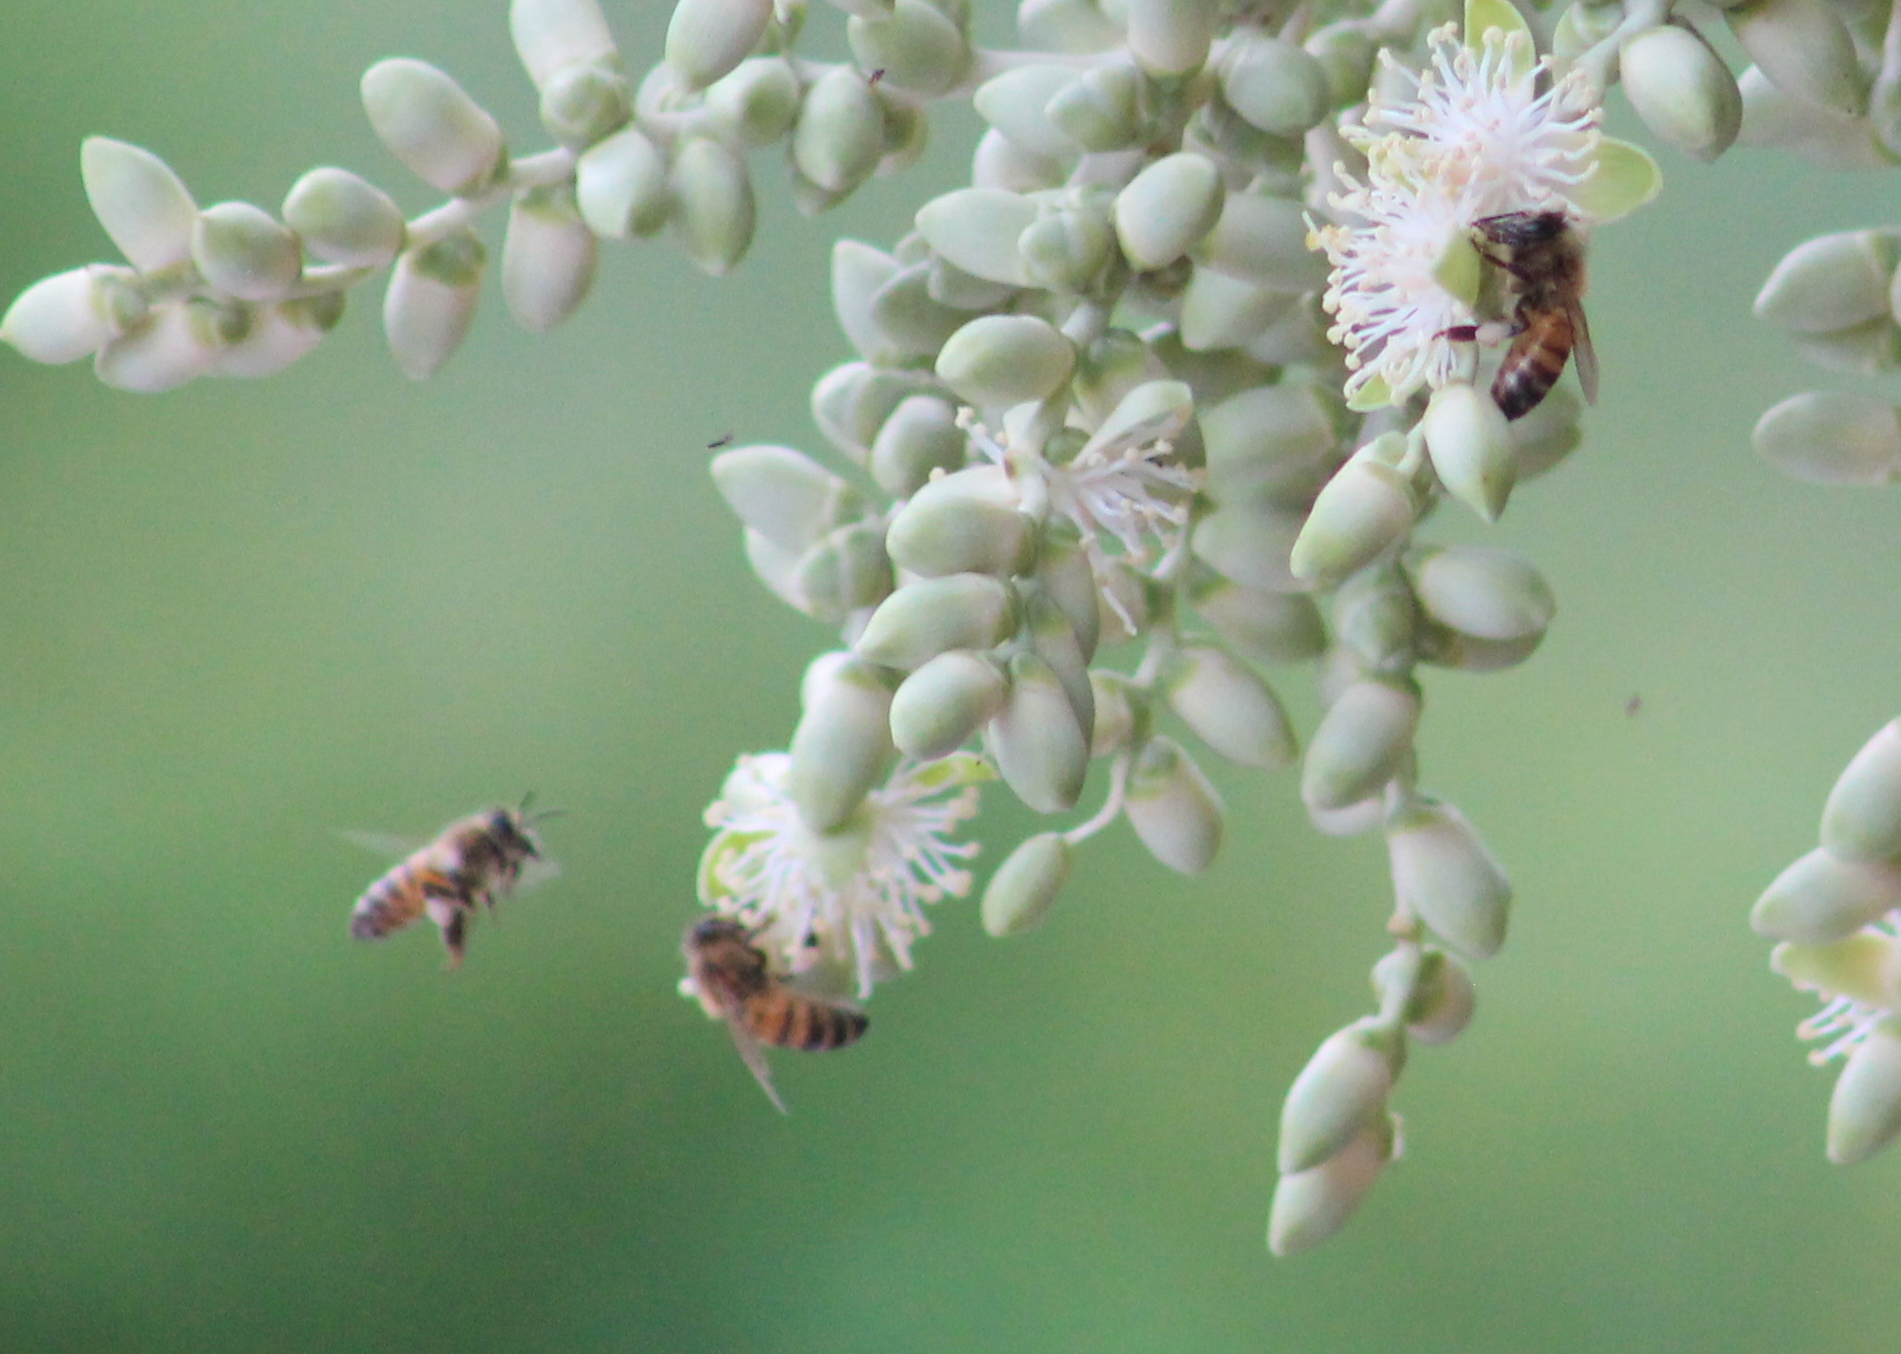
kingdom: Animalia
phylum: Arthropoda
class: Insecta
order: Hymenoptera
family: Apidae
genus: Apis
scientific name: Apis mellifera
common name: Honey bee
